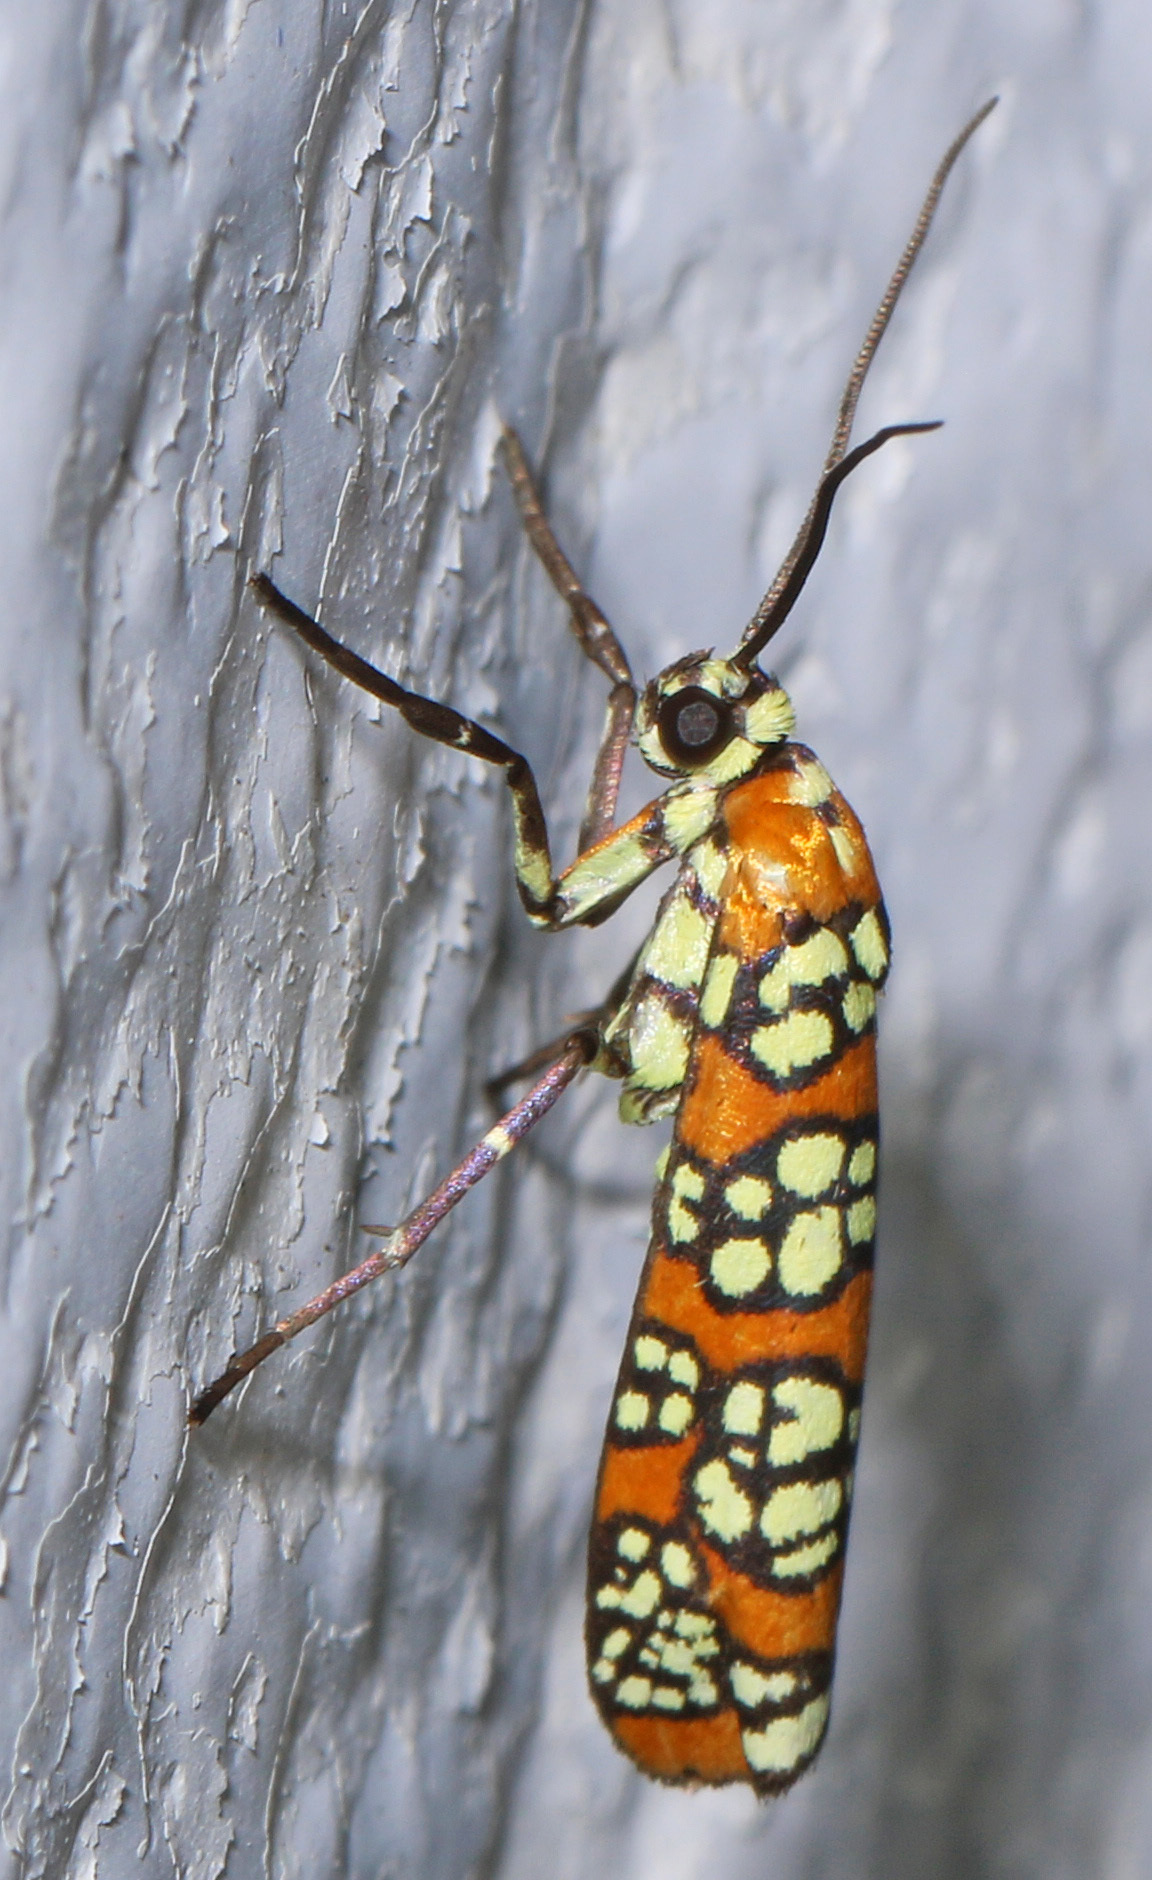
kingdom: Animalia
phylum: Arthropoda
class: Insecta
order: Lepidoptera
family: Attevidae
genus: Atteva
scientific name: Atteva punctella
